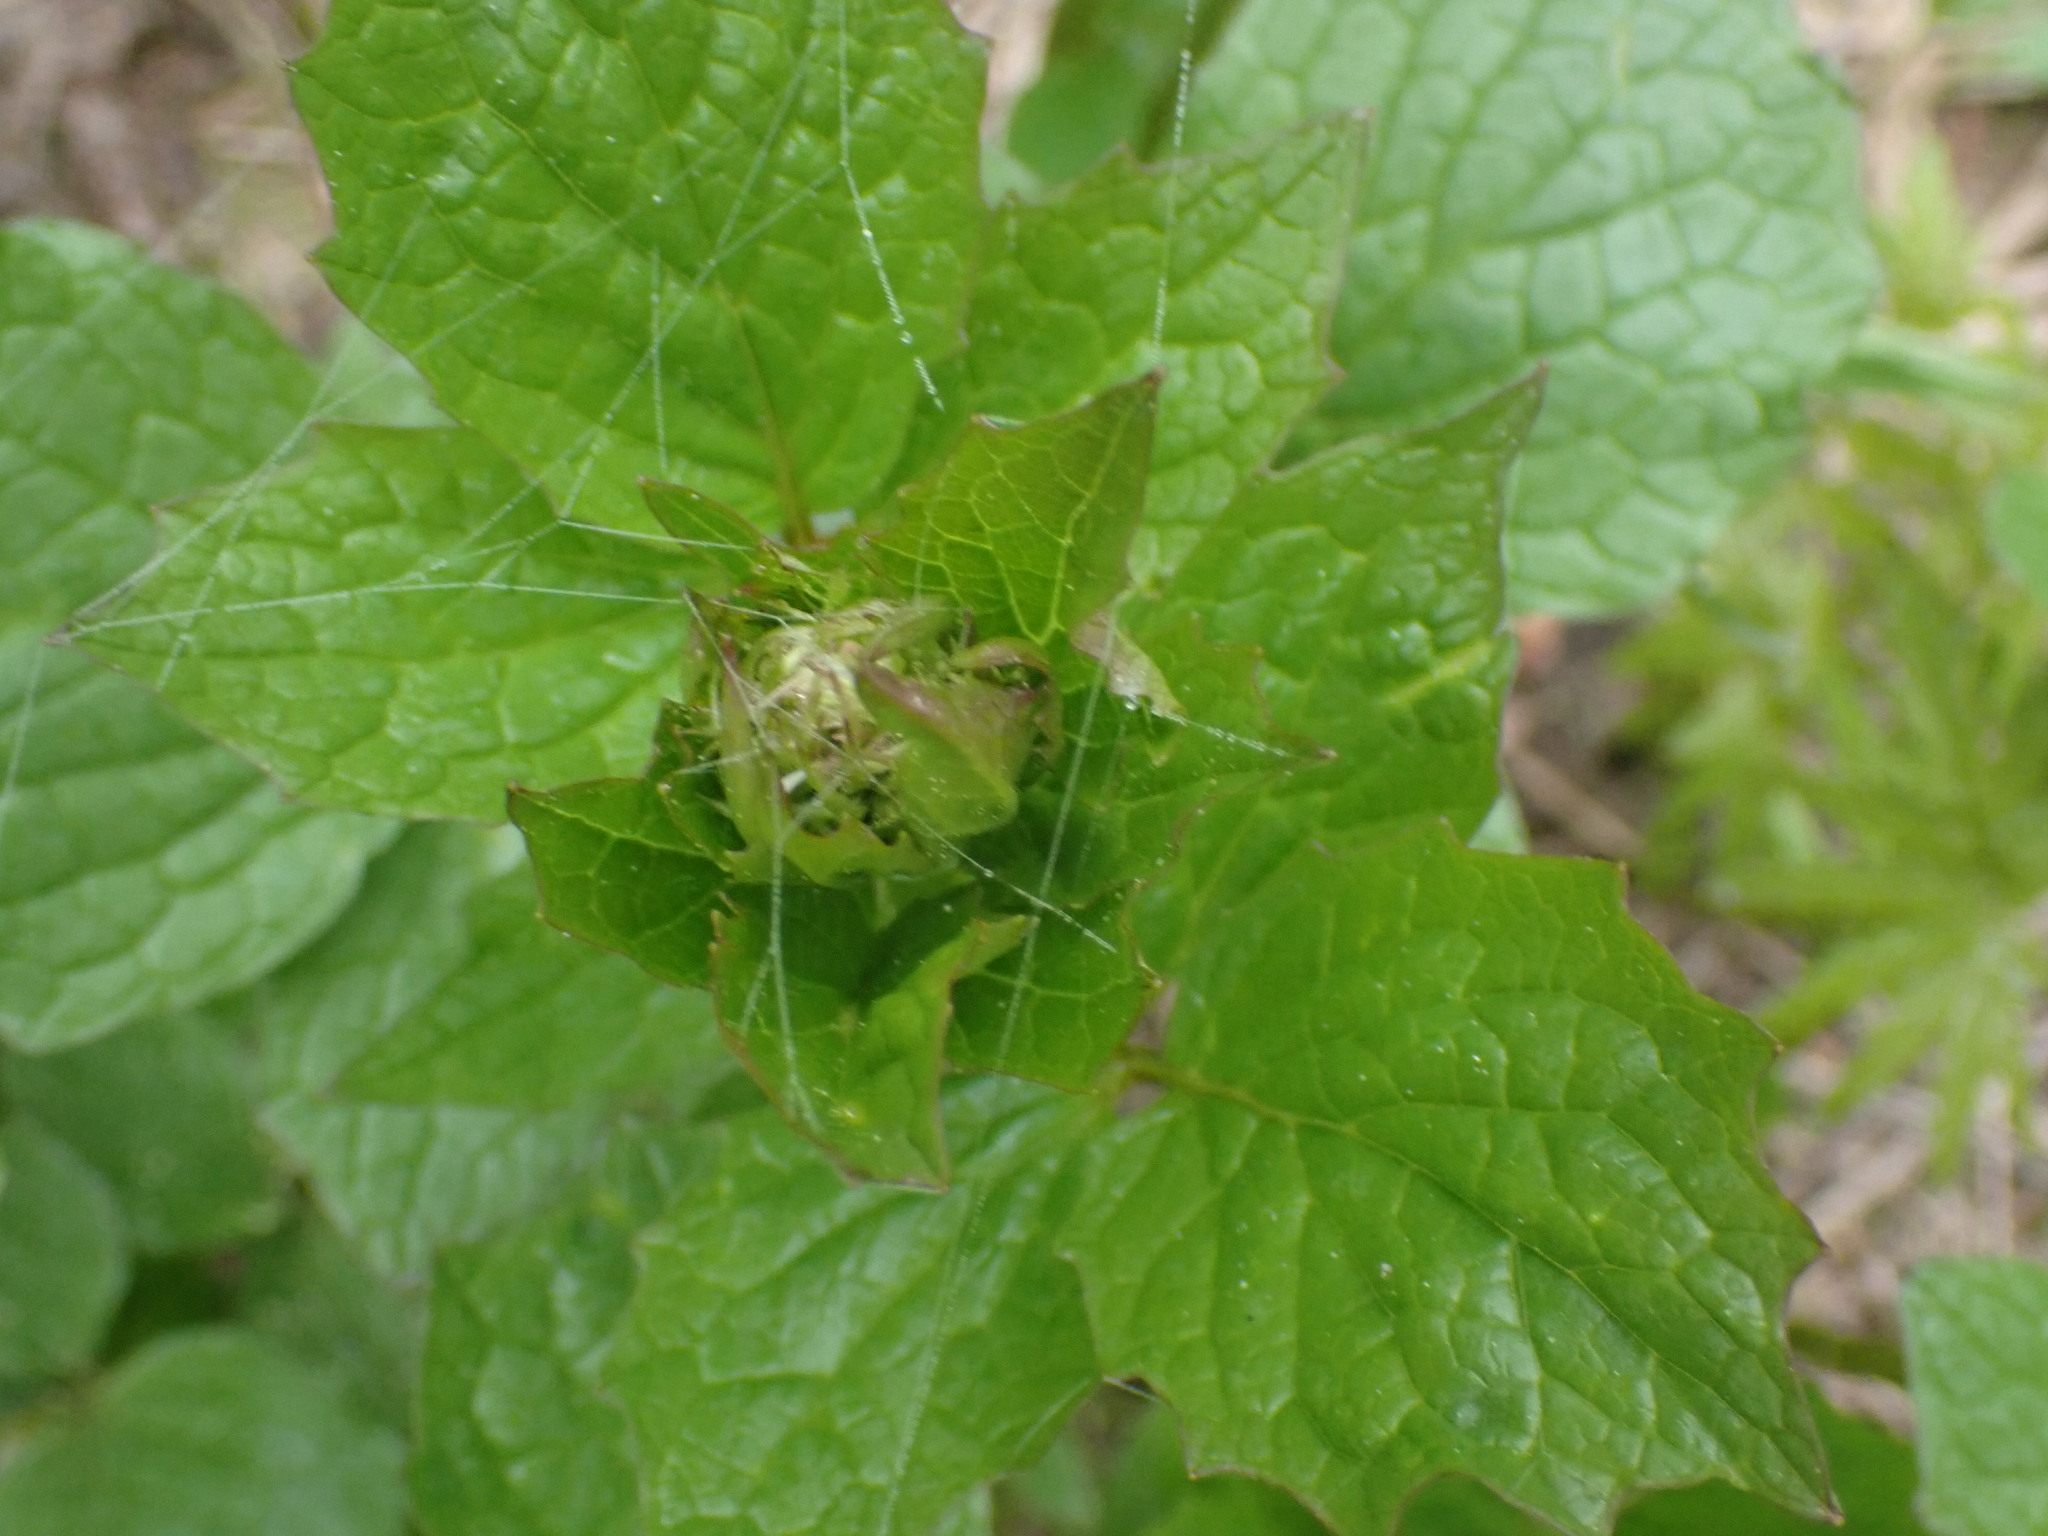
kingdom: Plantae
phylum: Tracheophyta
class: Magnoliopsida
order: Dipsacales
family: Caprifoliaceae
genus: Valeriana
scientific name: Valeriana sitchensis
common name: Pacific valerian
